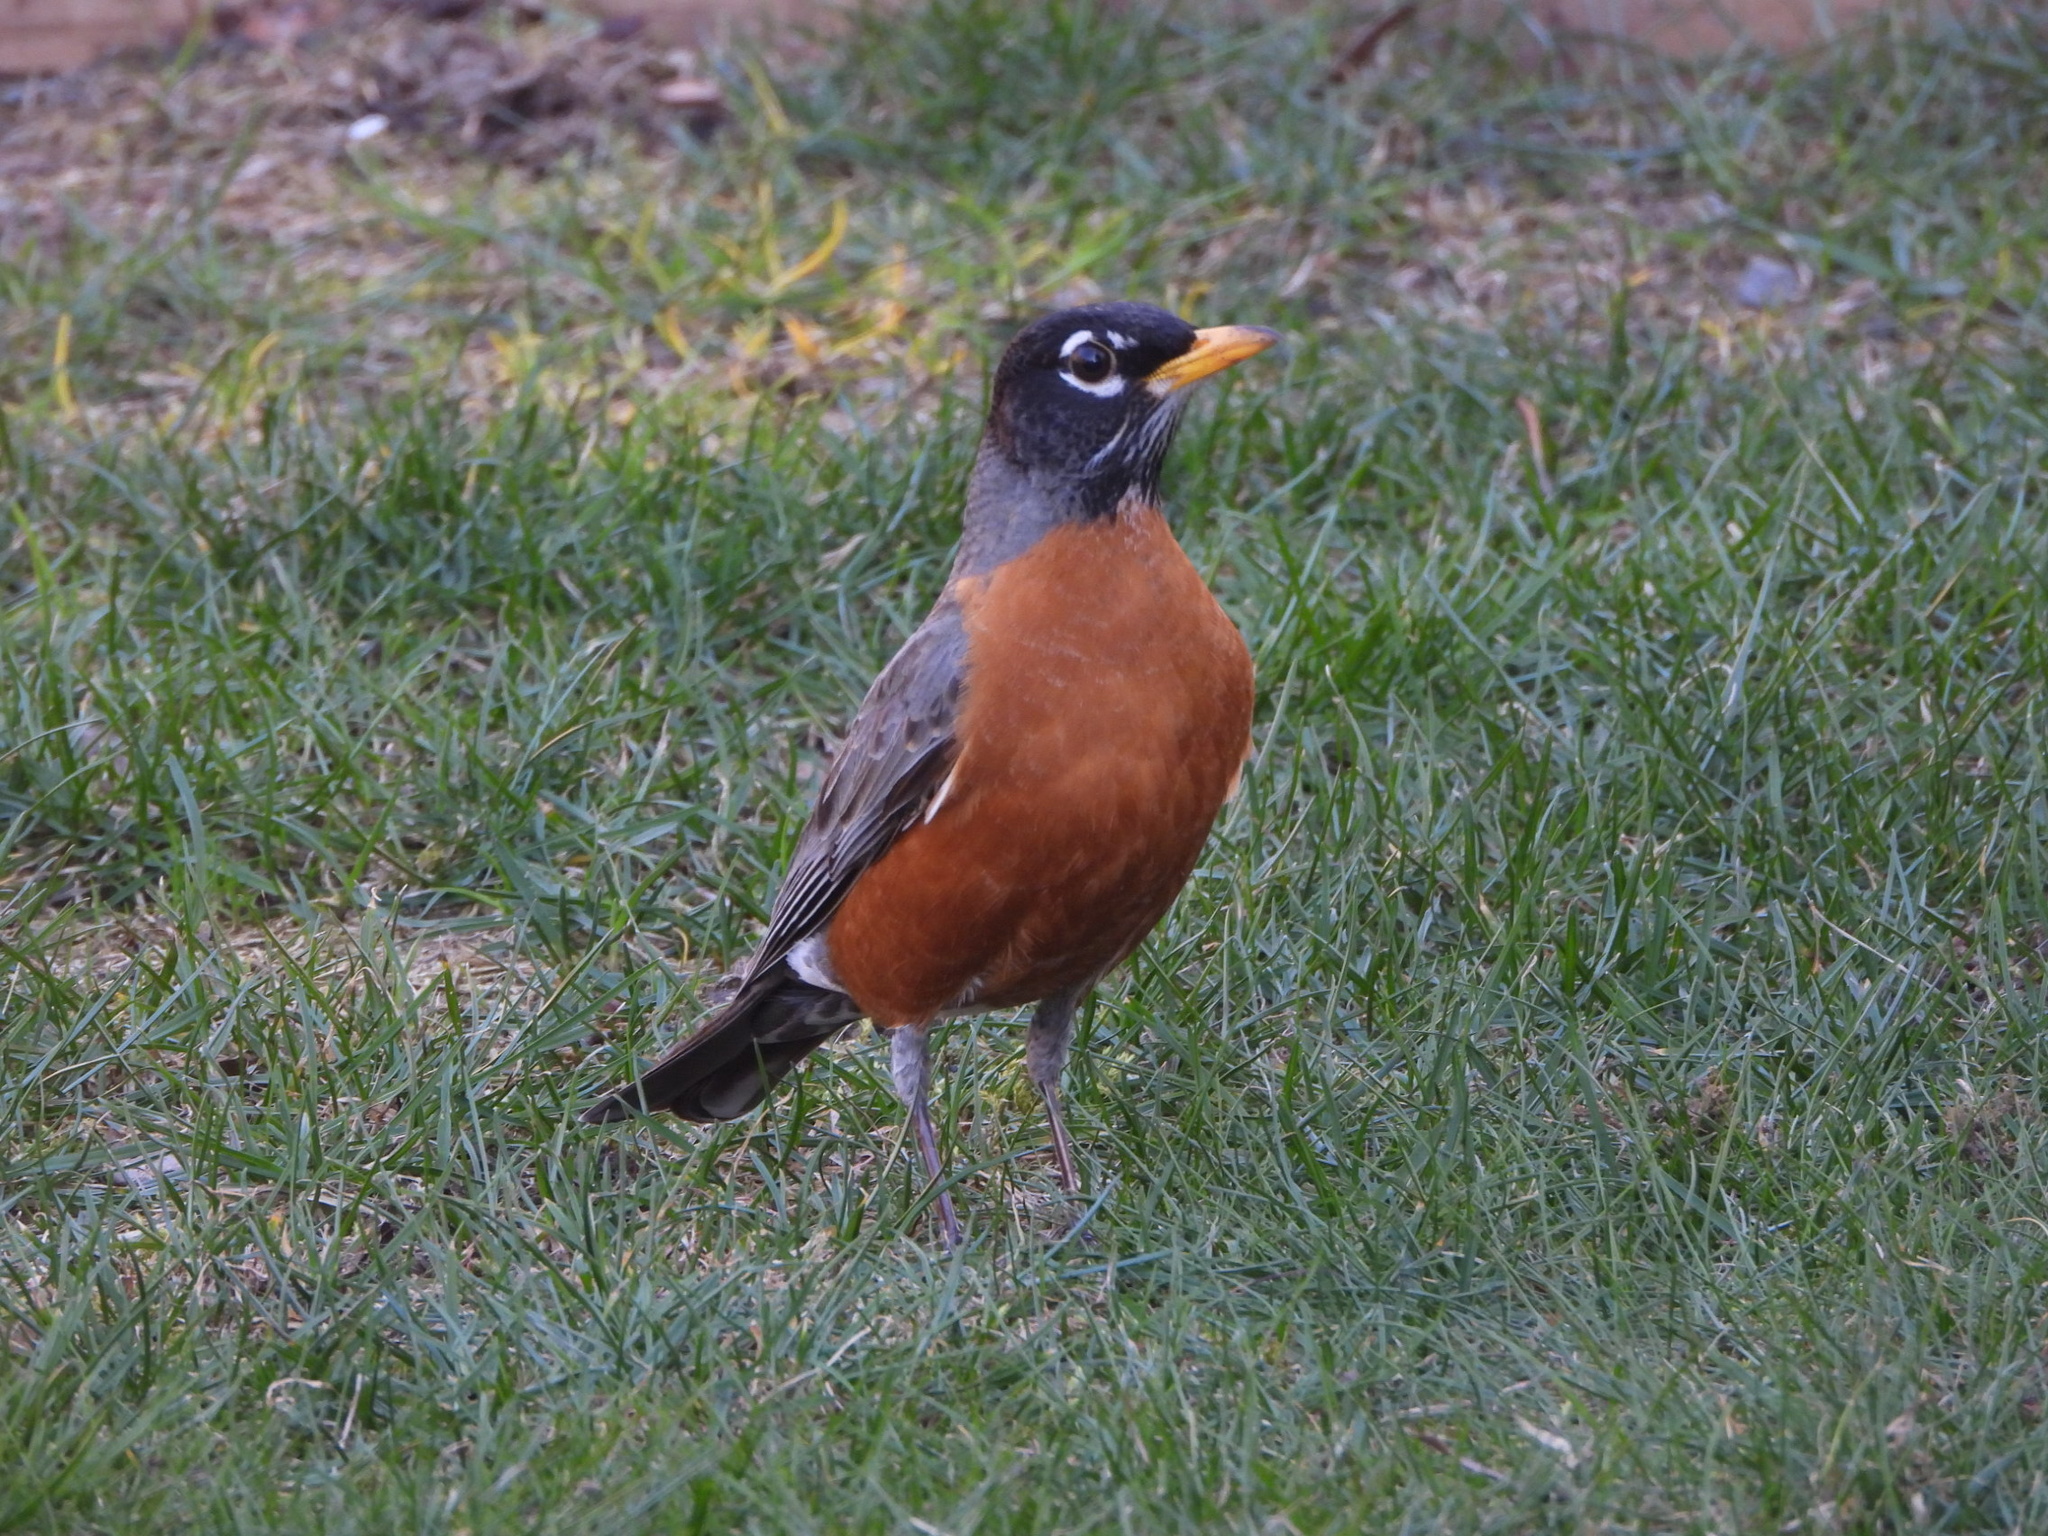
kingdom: Animalia
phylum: Chordata
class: Aves
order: Passeriformes
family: Turdidae
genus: Turdus
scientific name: Turdus migratorius
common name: American robin
